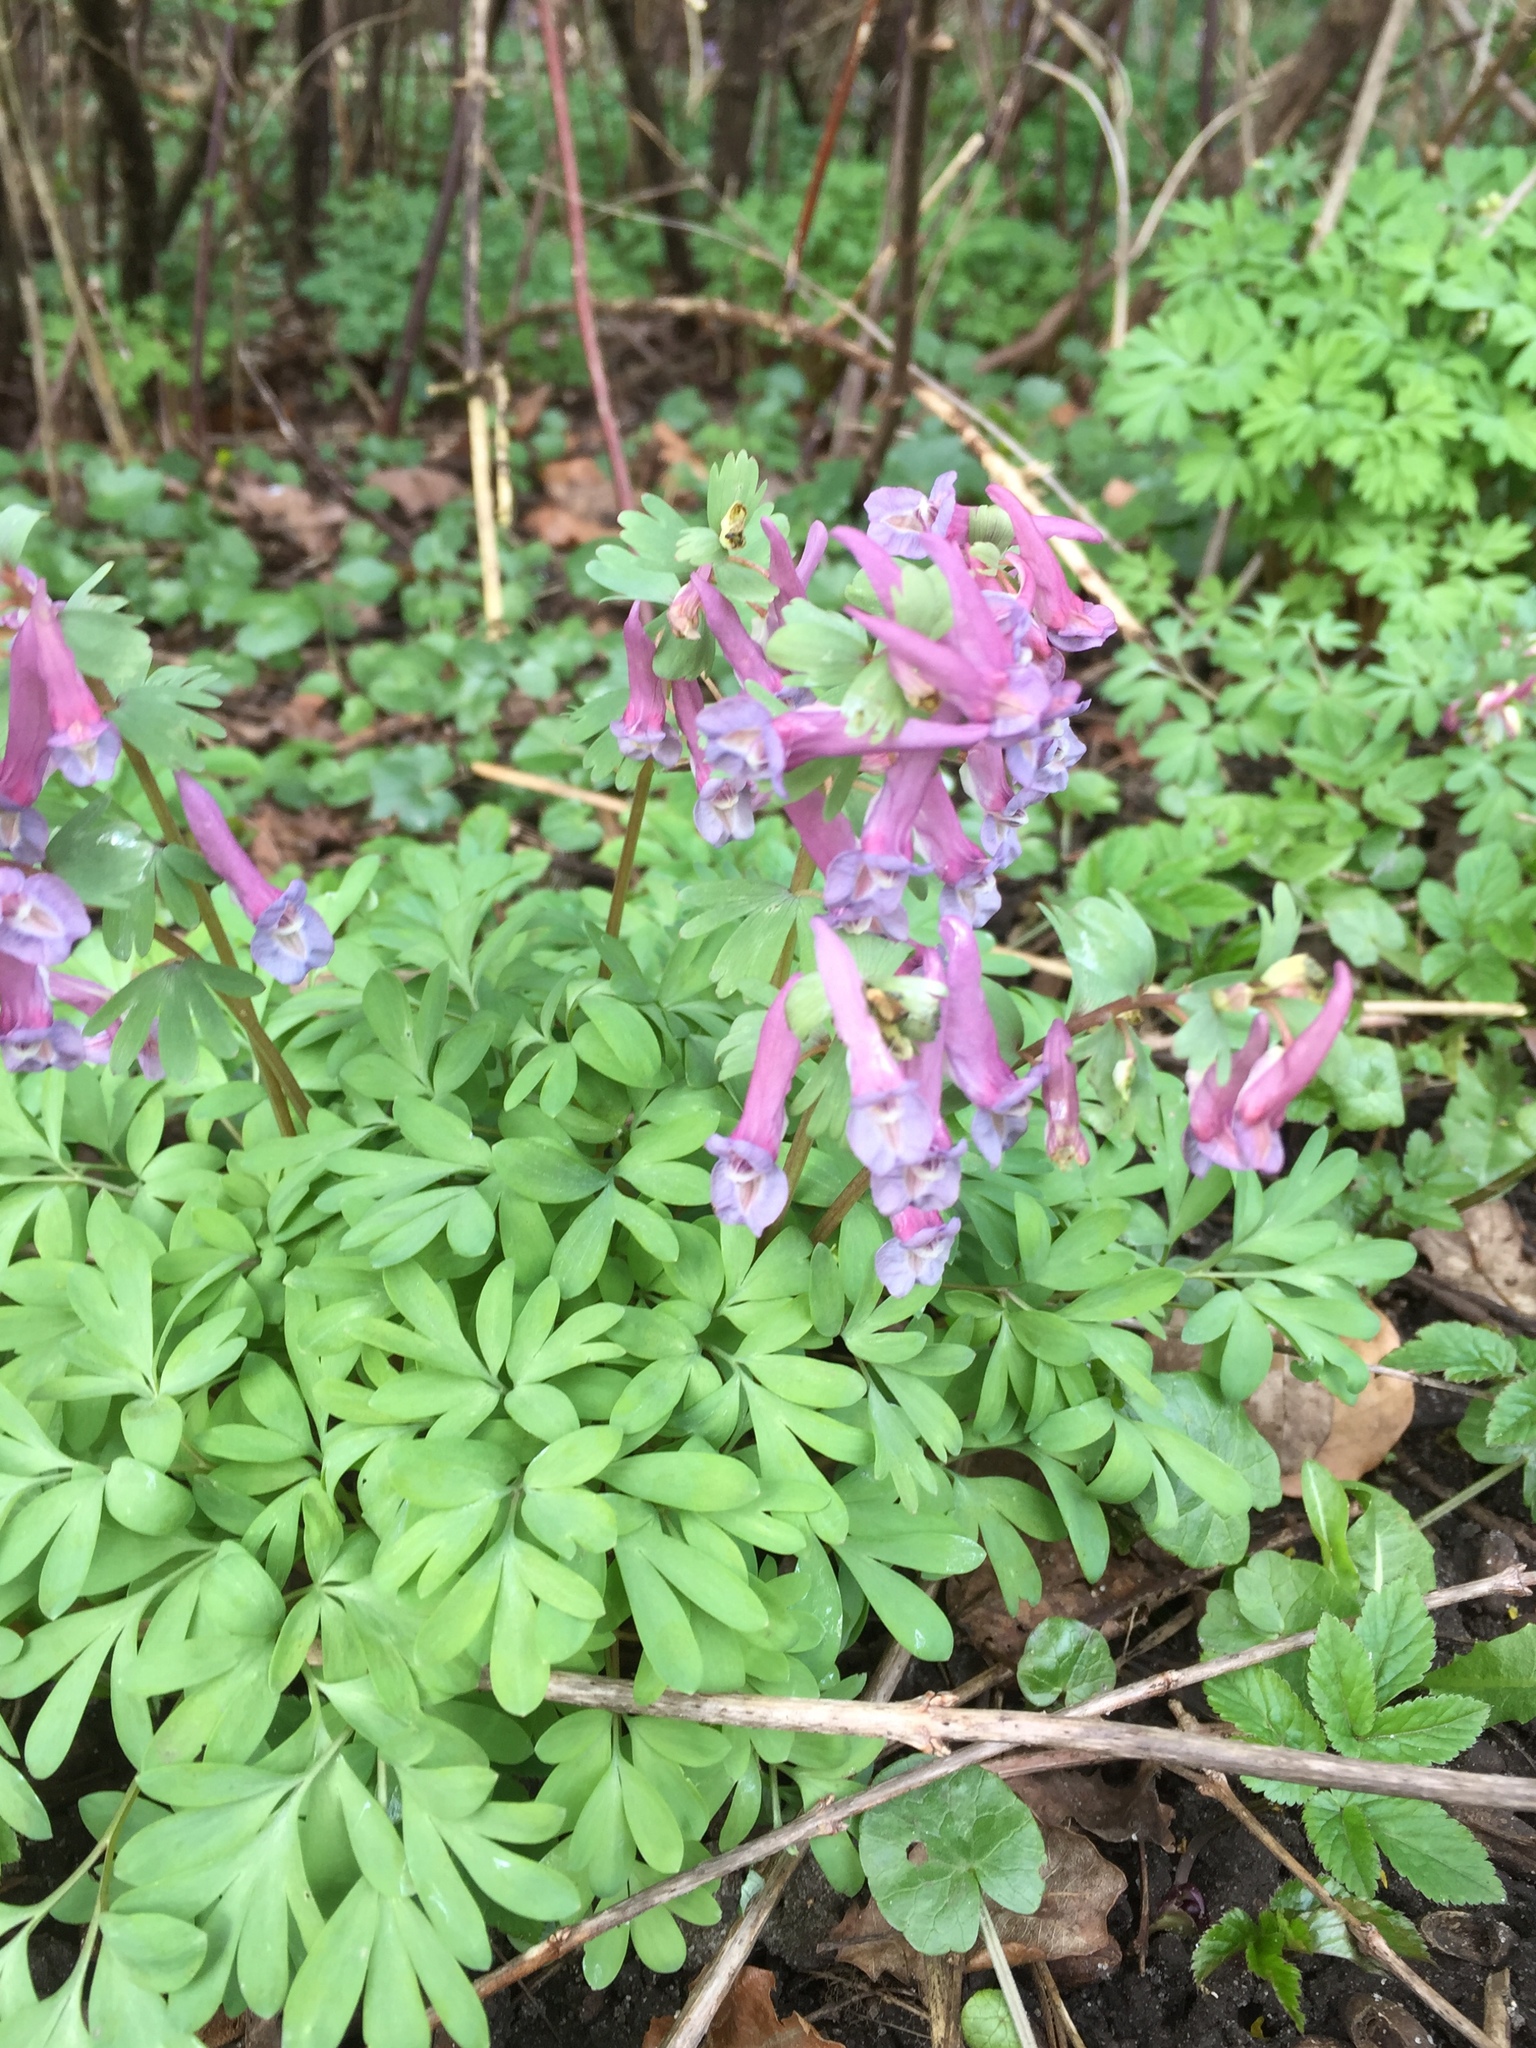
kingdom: Plantae
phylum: Tracheophyta
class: Magnoliopsida
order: Ranunculales
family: Papaveraceae
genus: Corydalis
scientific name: Corydalis solida
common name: Bird-in-a-bush
